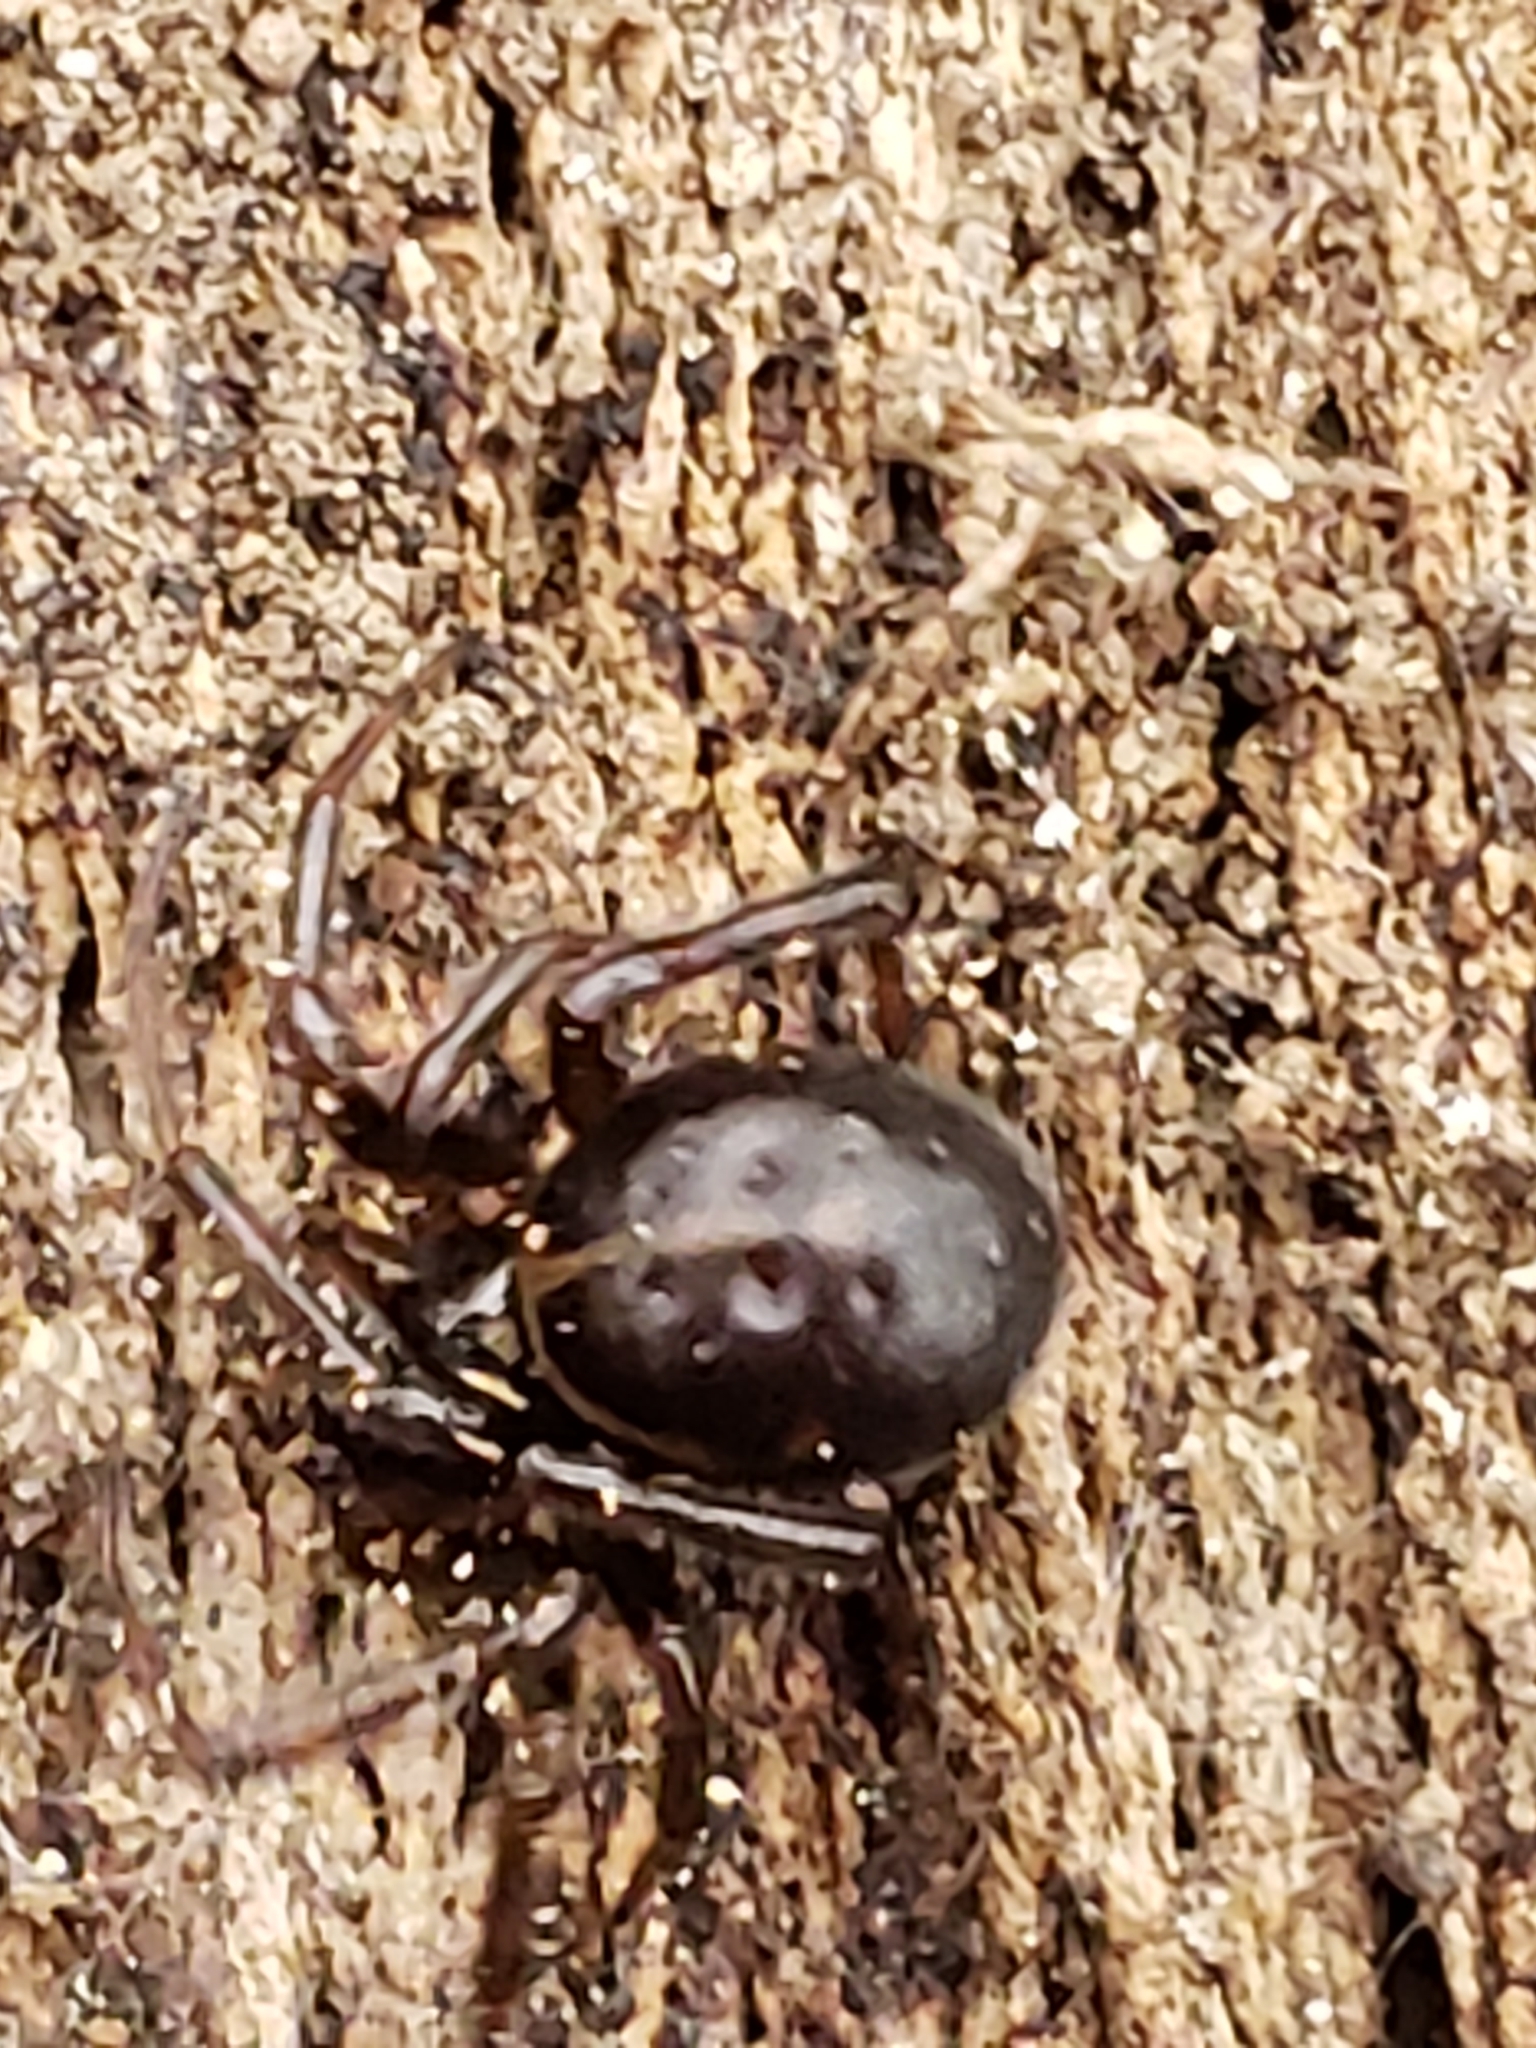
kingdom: Animalia
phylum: Arthropoda
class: Arachnida
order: Araneae
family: Theridiidae
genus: Steatoda
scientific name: Steatoda borealis
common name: Boreal combfoot
